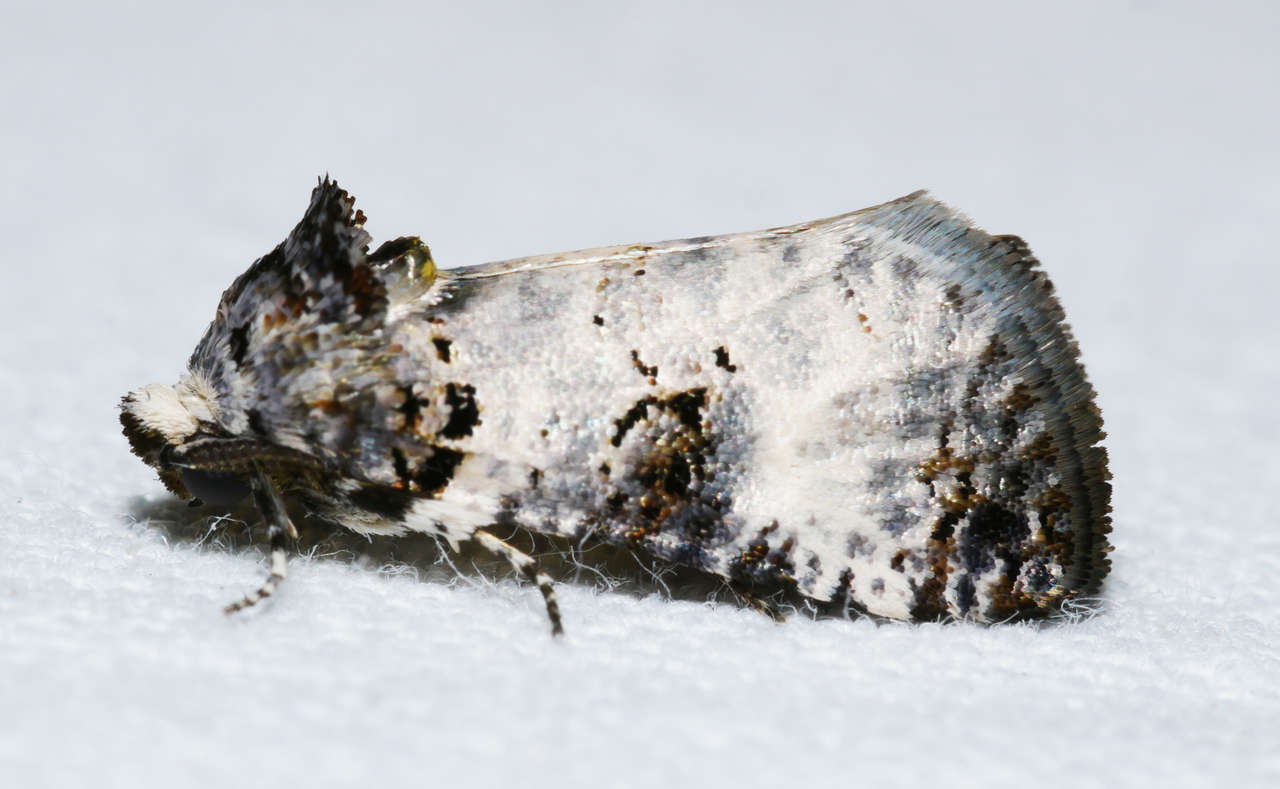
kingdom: Animalia
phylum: Arthropoda
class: Insecta
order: Lepidoptera
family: Cossidae
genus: Idioses
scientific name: Idioses littleri
